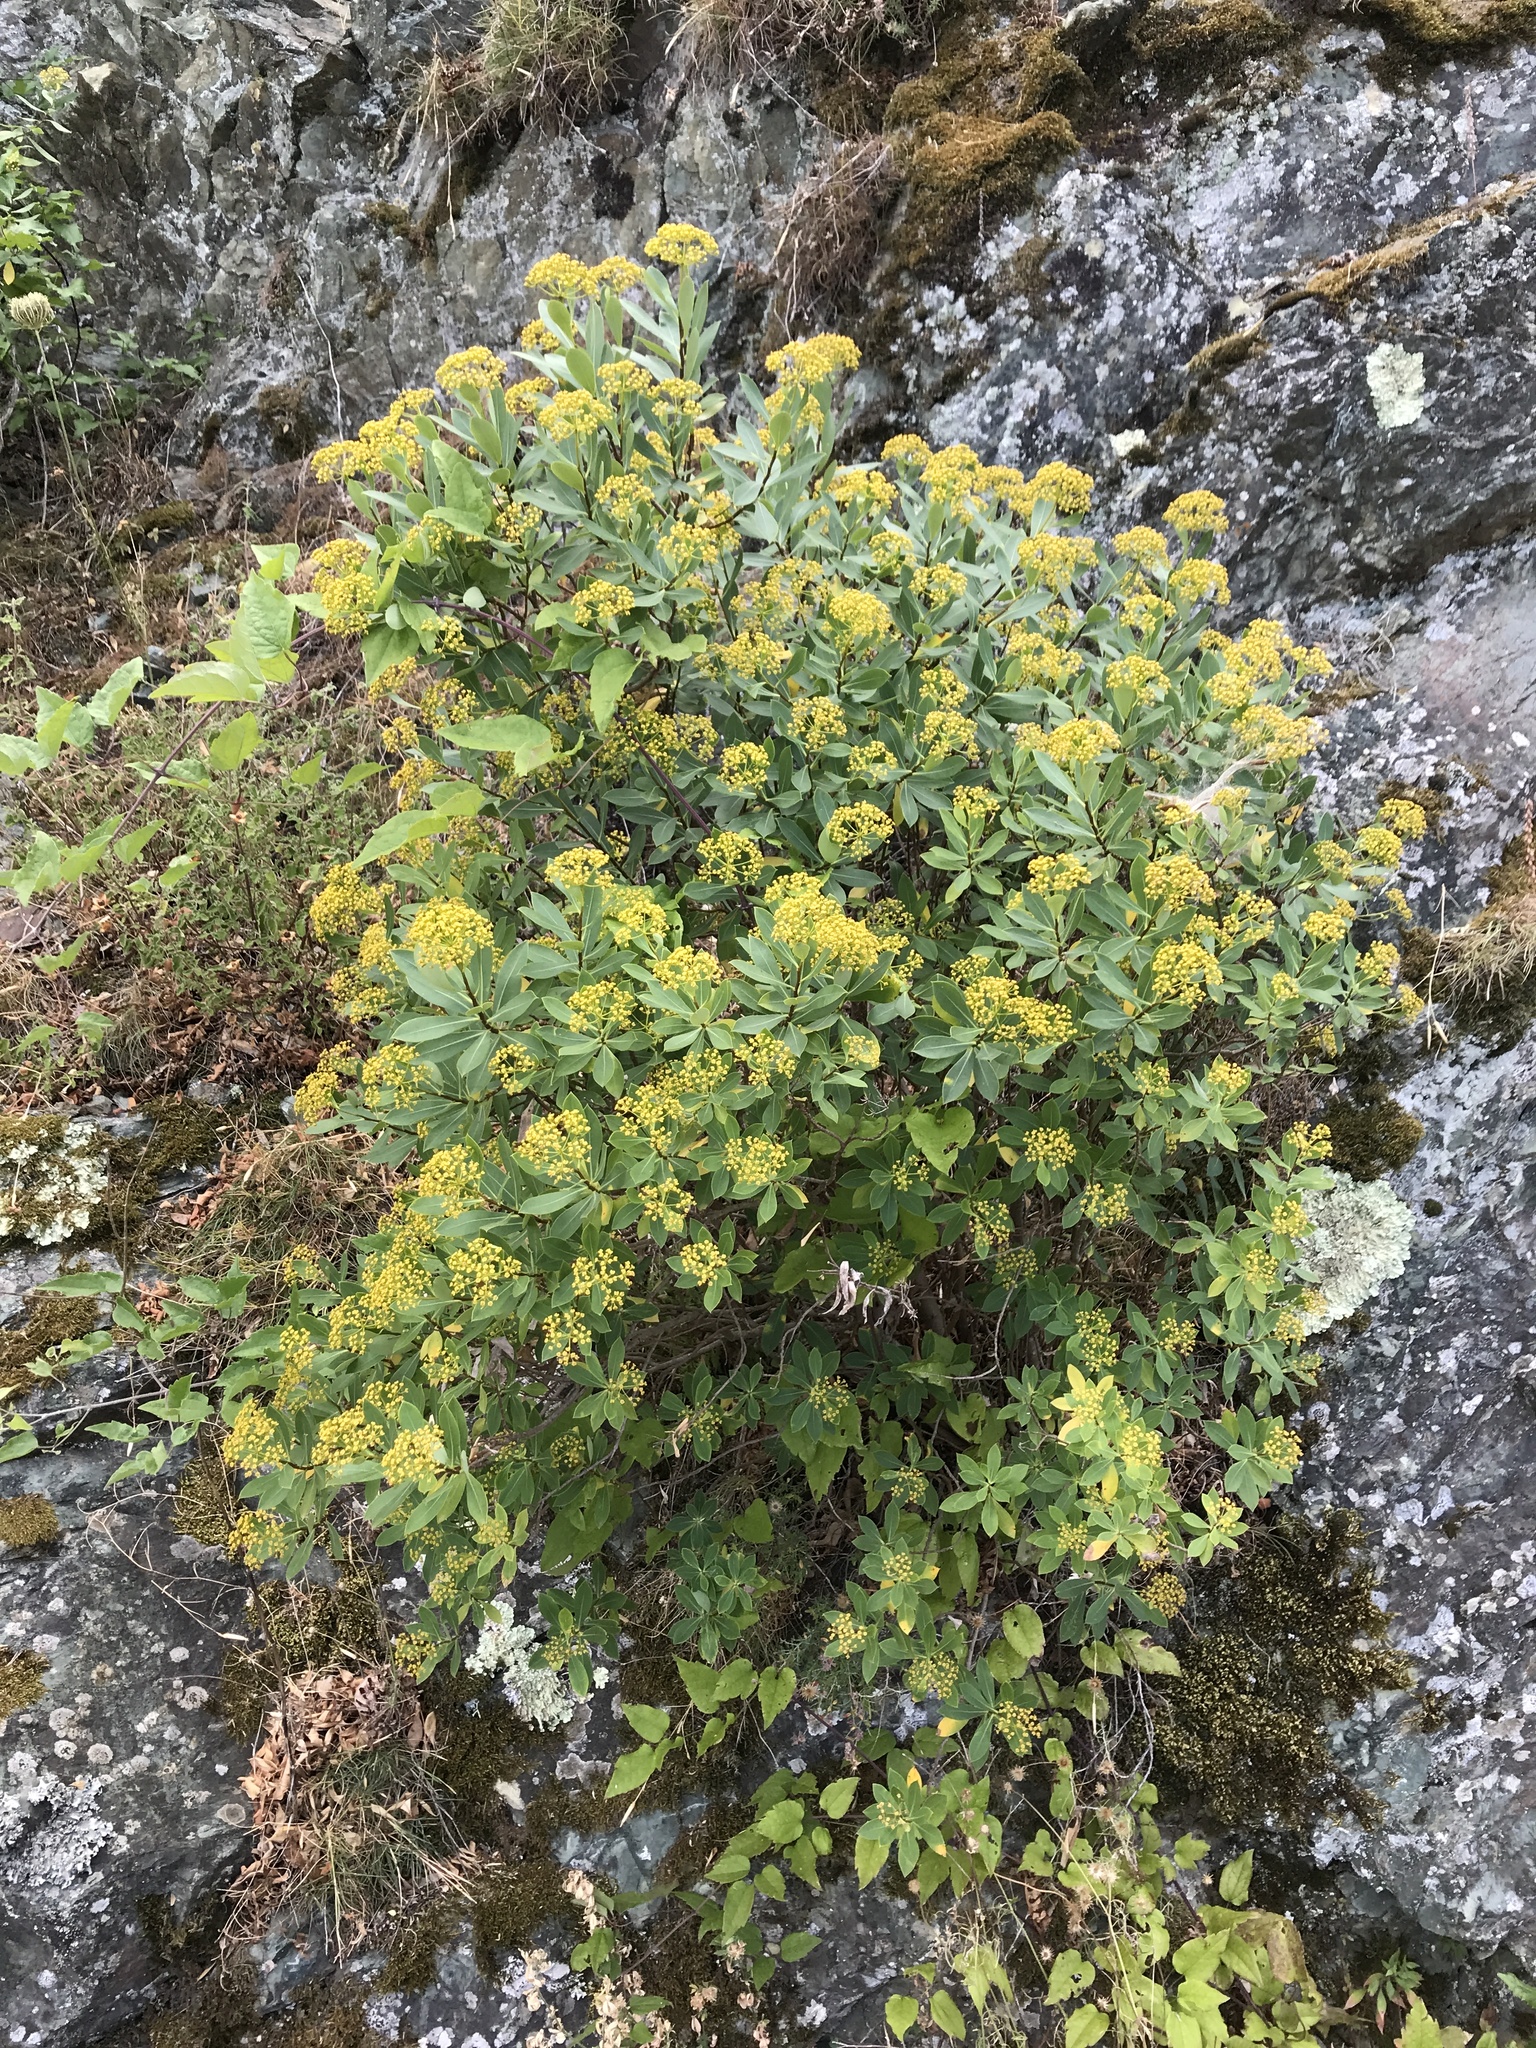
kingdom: Plantae
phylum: Tracheophyta
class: Magnoliopsida
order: Apiales
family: Apiaceae
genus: Bupleurum
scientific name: Bupleurum fruticosum
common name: Shrubby hare's-ear
